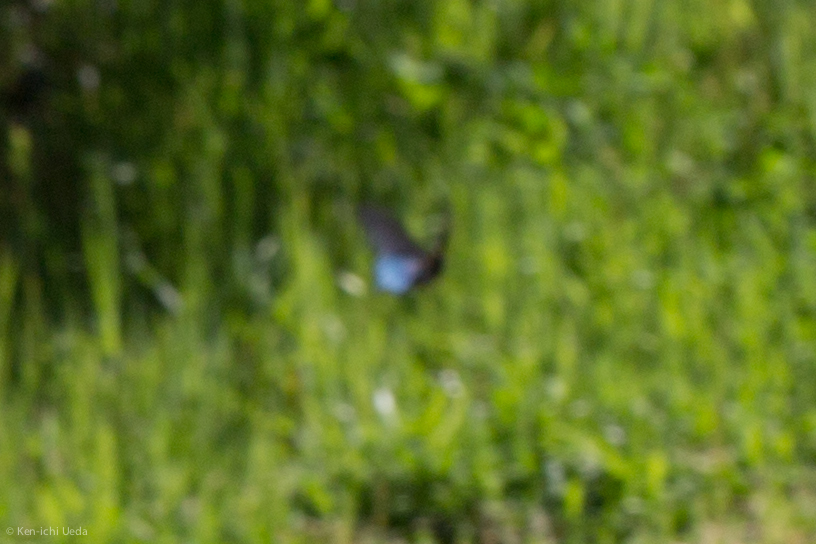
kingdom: Animalia
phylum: Arthropoda
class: Insecta
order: Lepidoptera
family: Papilionidae
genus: Battus
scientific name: Battus philenor
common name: Pipevine swallowtail
